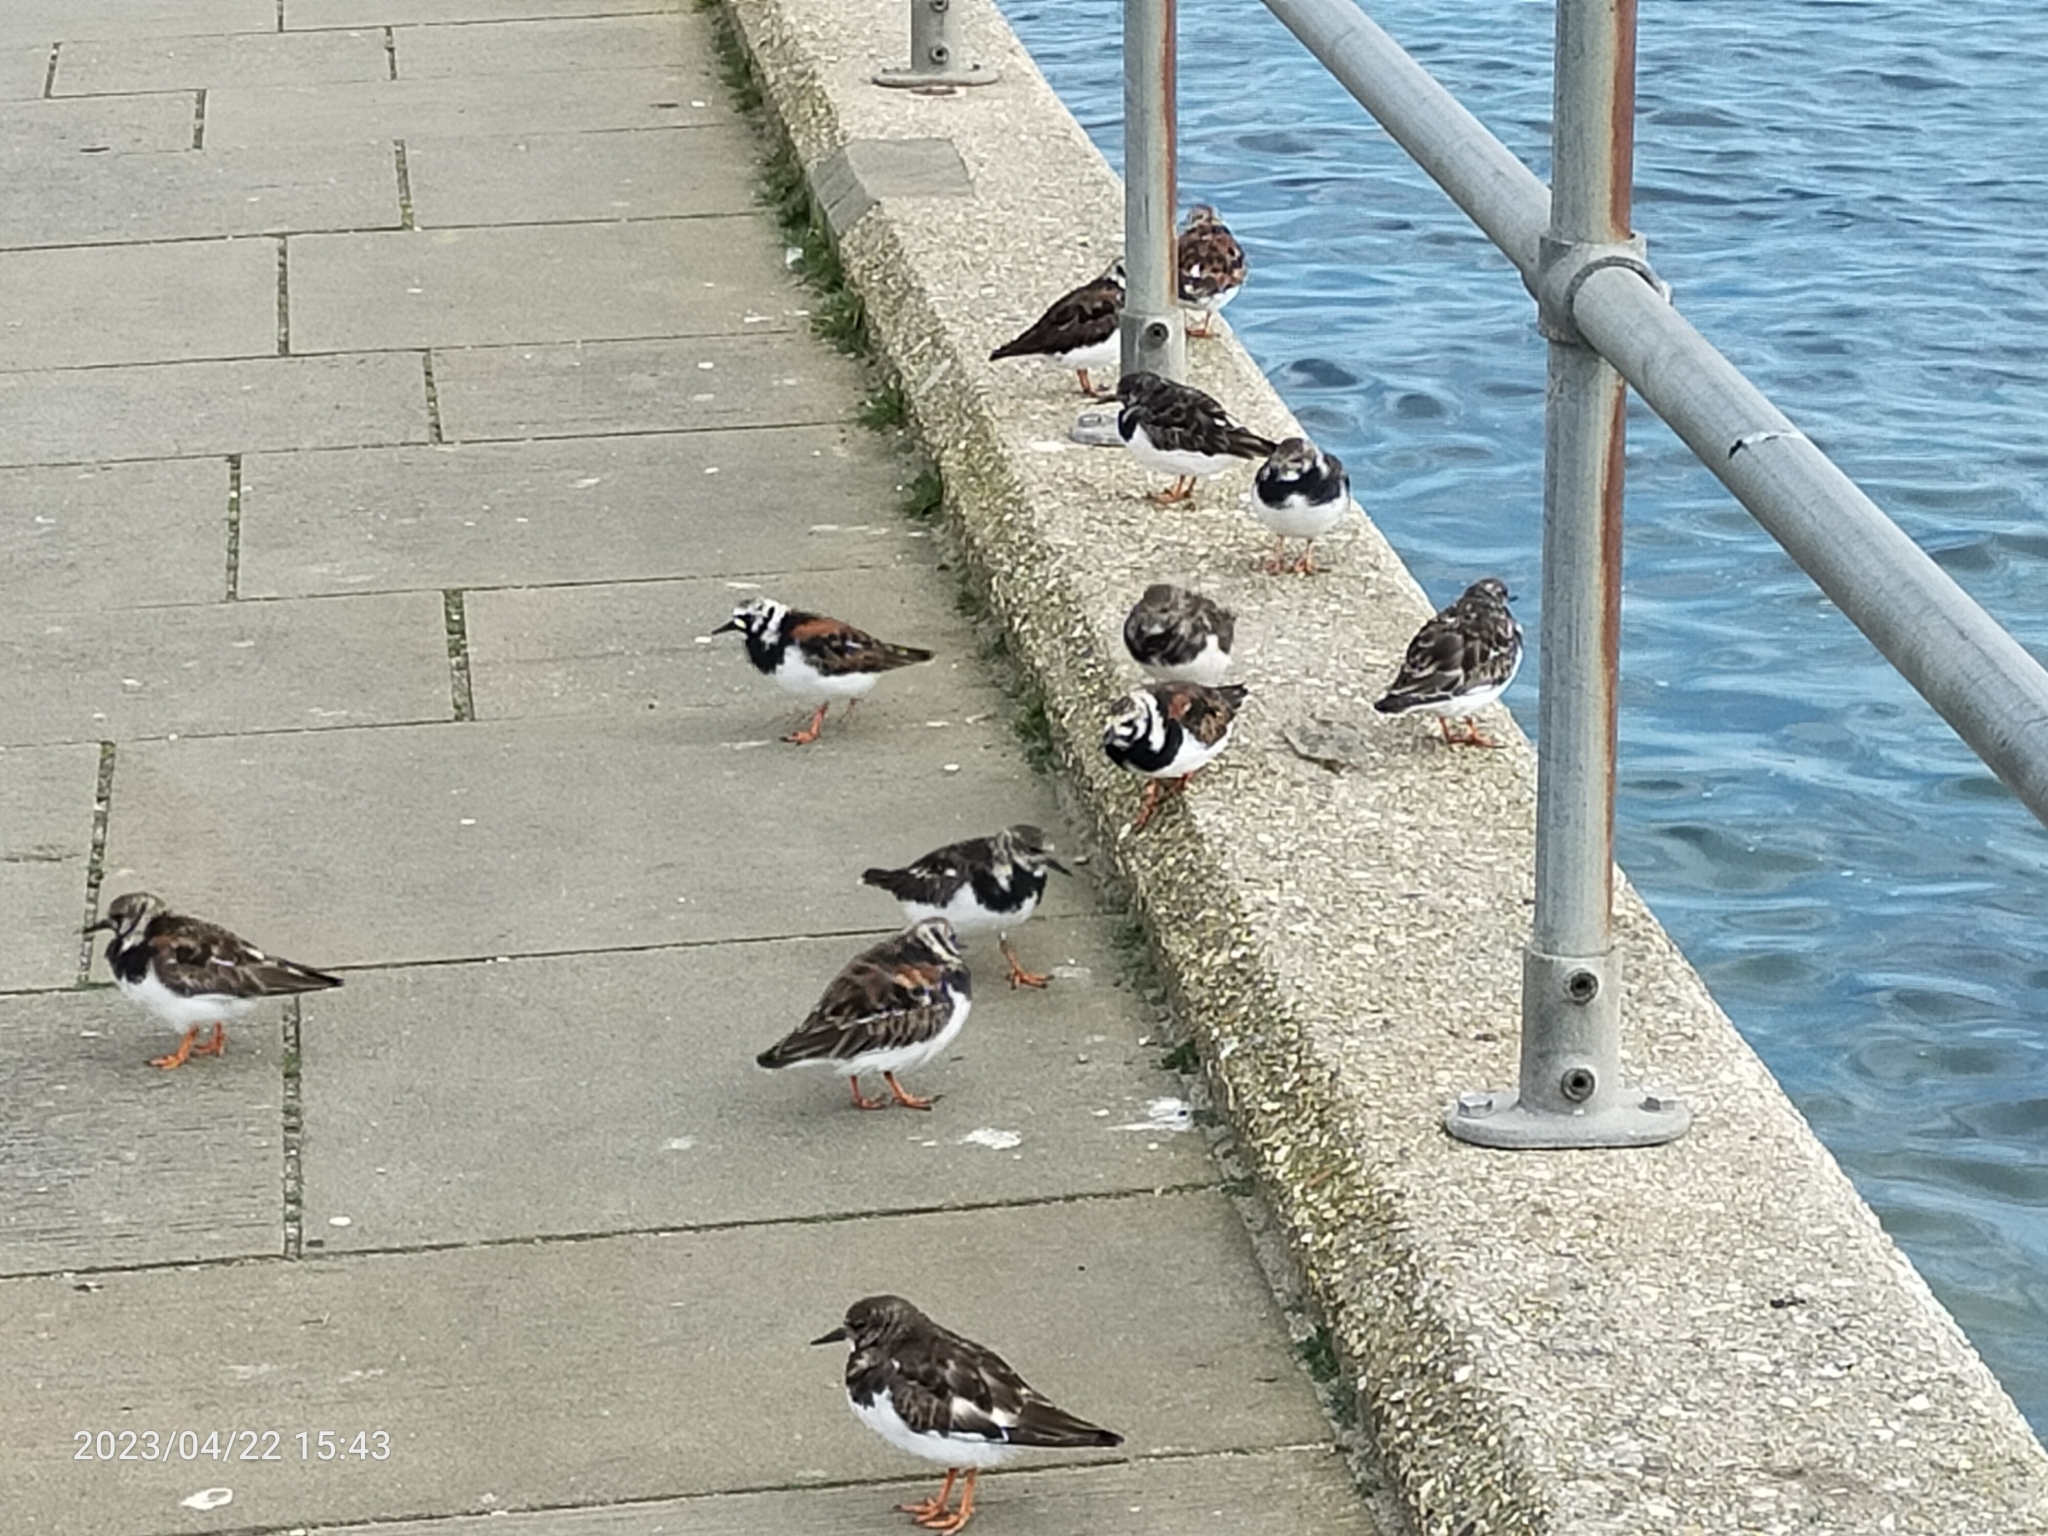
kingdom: Animalia
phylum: Chordata
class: Aves
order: Charadriiformes
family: Scolopacidae
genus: Arenaria
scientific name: Arenaria interpres
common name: Ruddy turnstone
